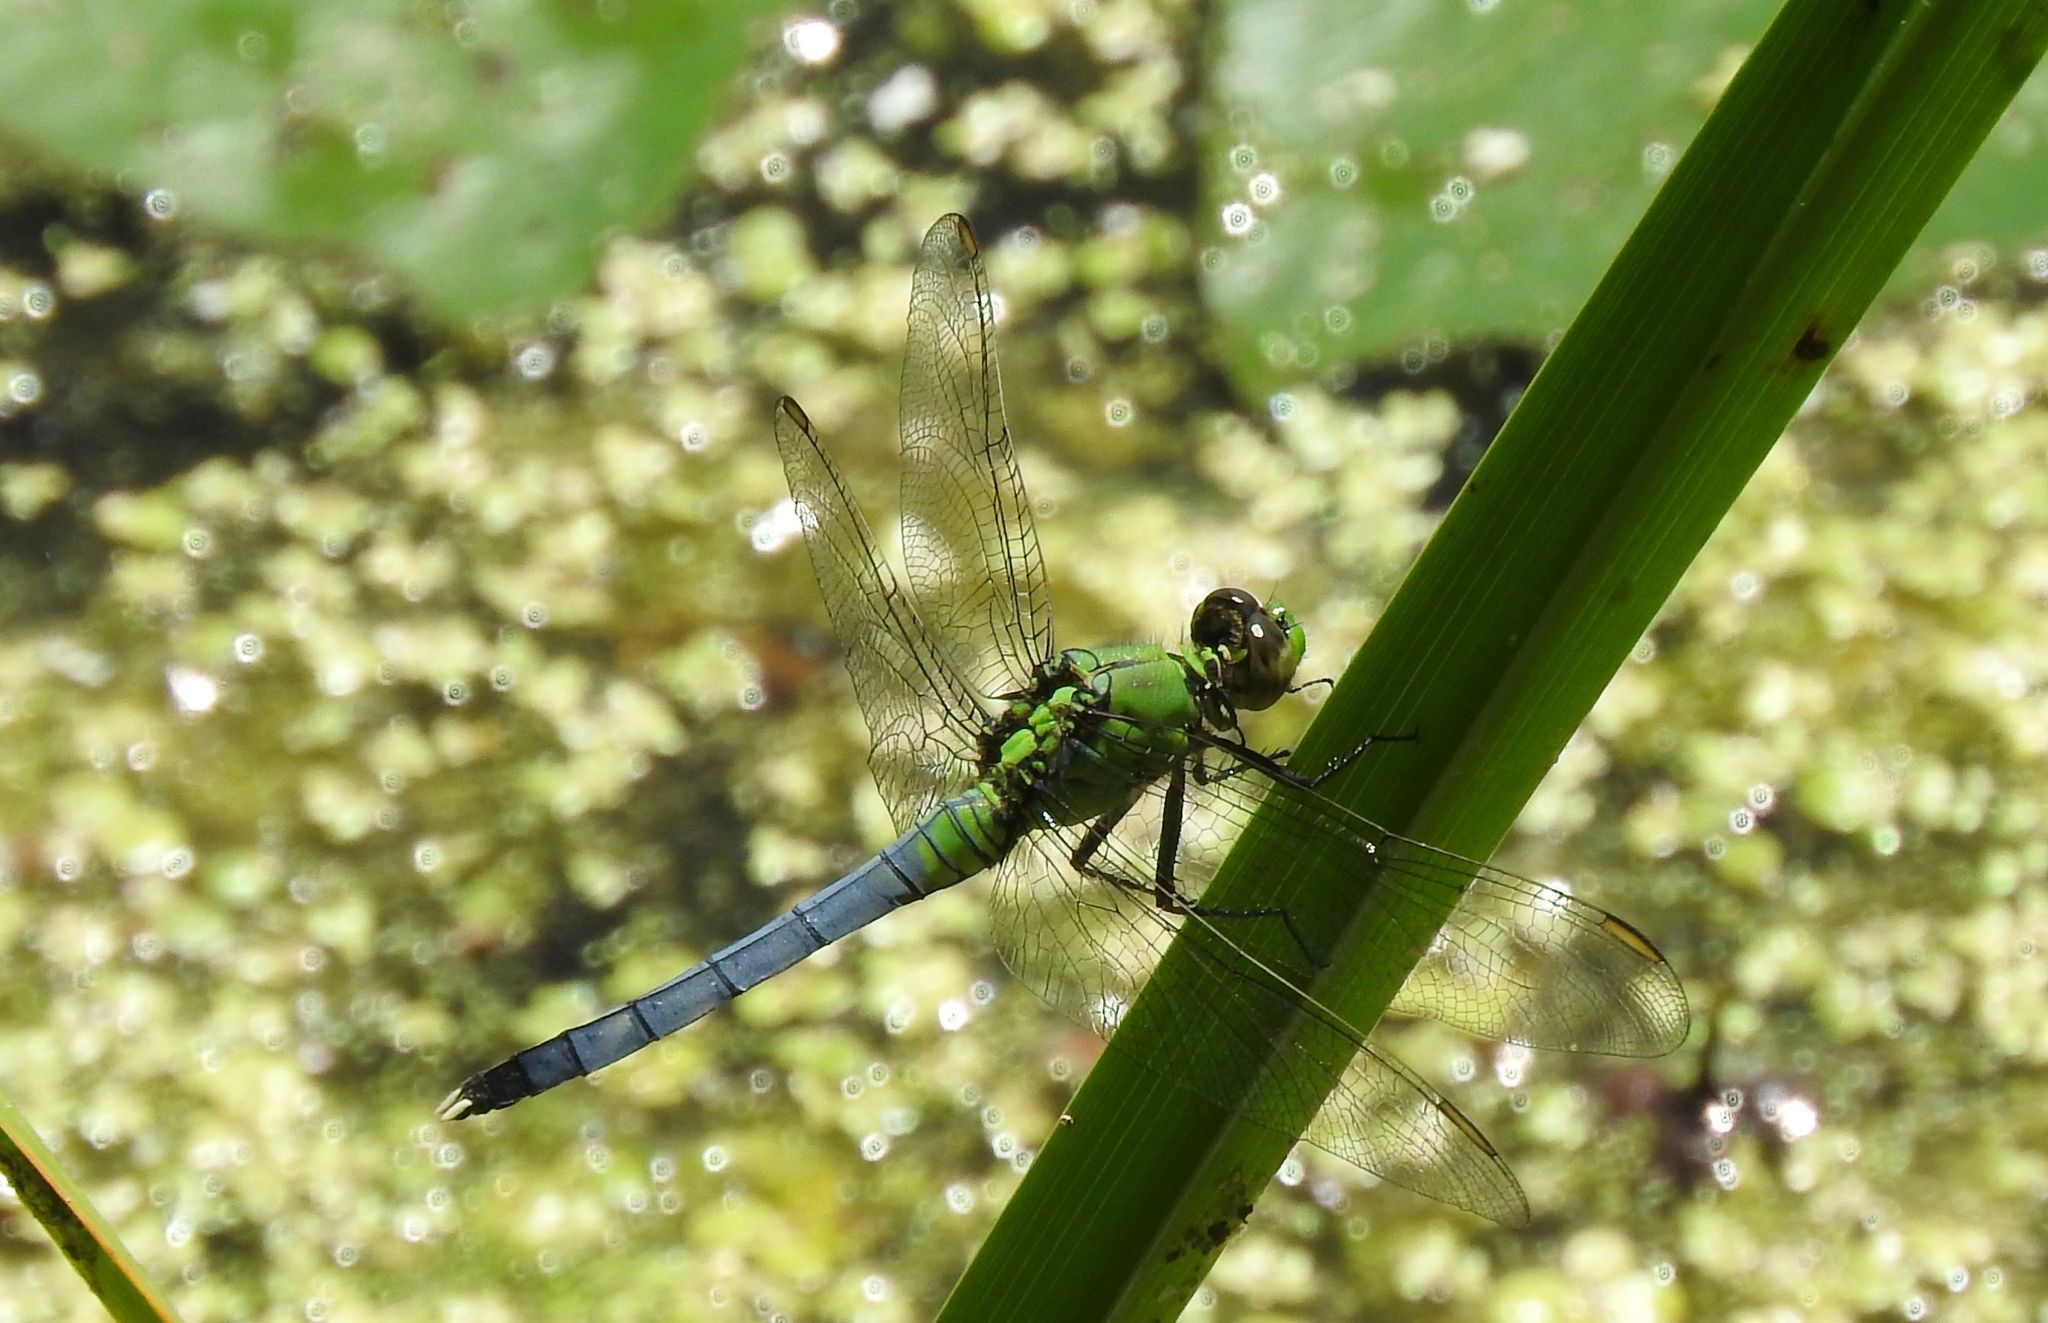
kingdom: Animalia
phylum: Arthropoda
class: Insecta
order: Odonata
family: Libellulidae
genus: Erythemis
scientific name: Erythemis simplicicollis
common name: Eastern pondhawk
